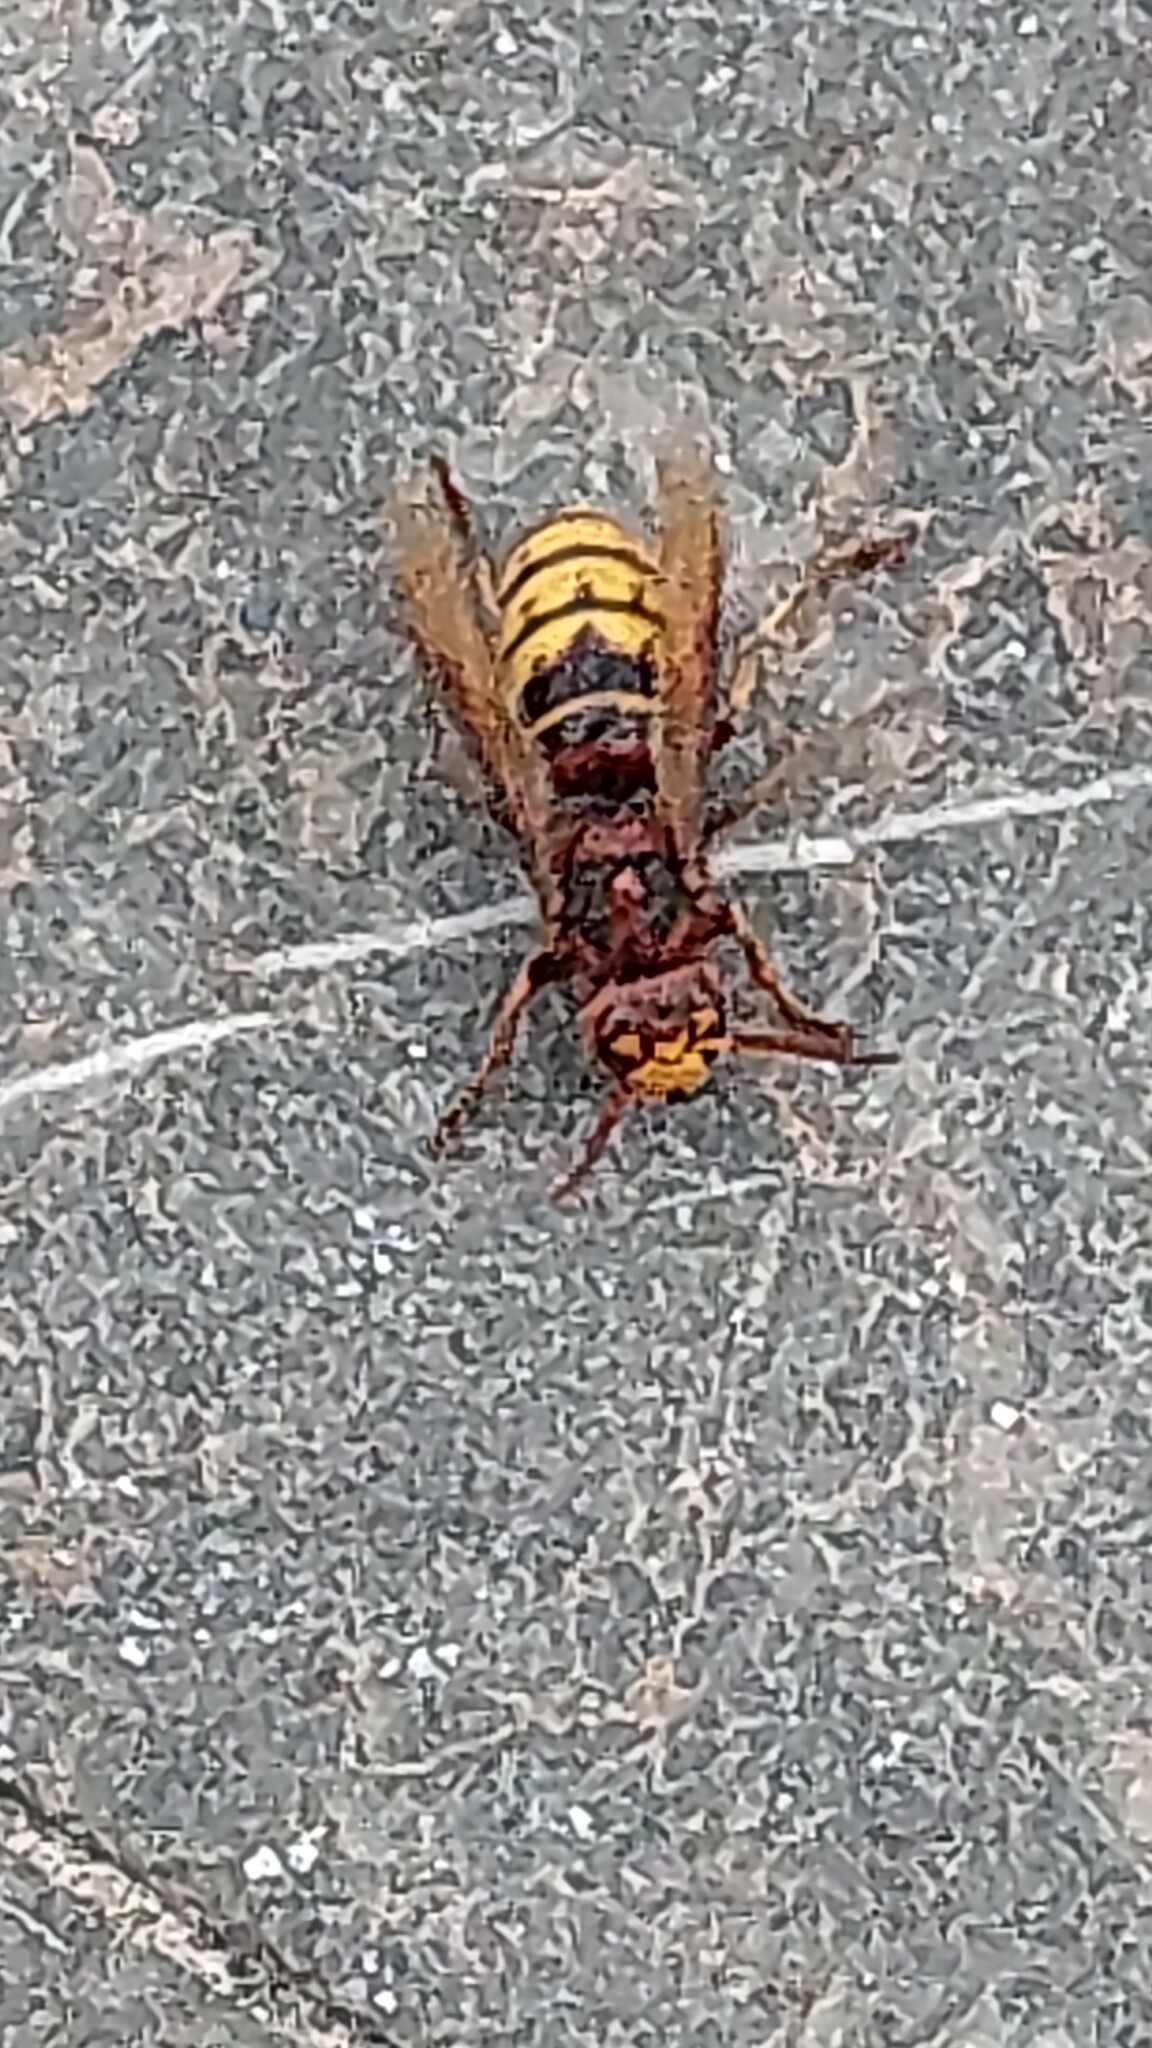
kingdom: Animalia
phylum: Arthropoda
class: Insecta
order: Hymenoptera
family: Vespidae
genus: Vespa
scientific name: Vespa crabro
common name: Hornet
